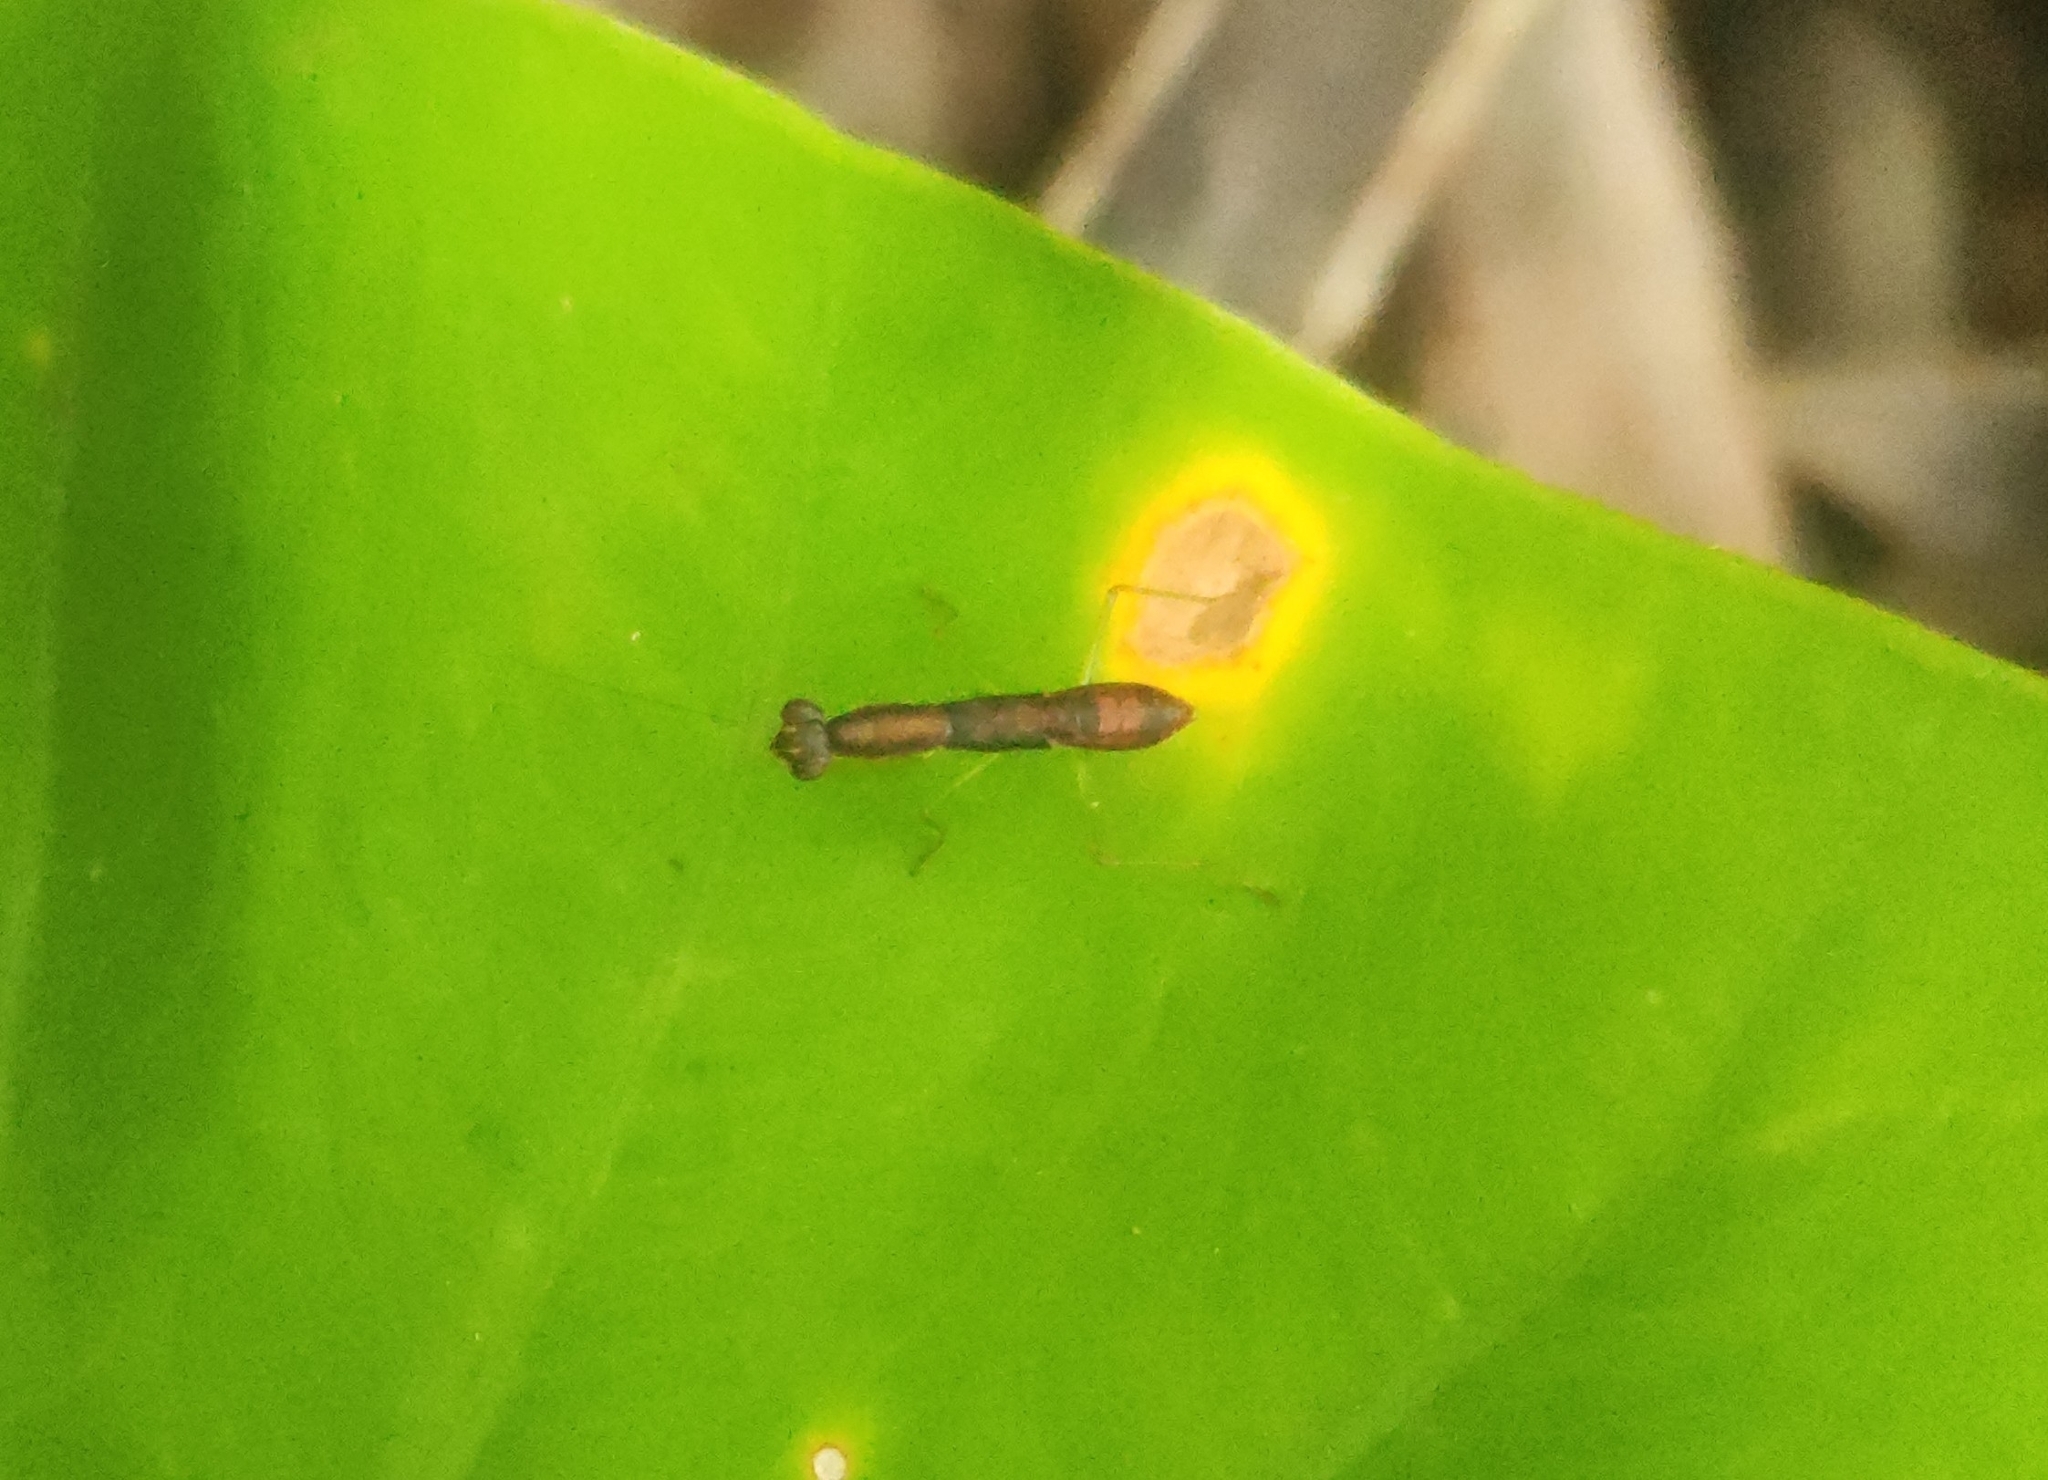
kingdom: Animalia
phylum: Arthropoda
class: Insecta
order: Mantodea
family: Hymenopodidae
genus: Odontomantis
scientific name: Odontomantis planiceps
